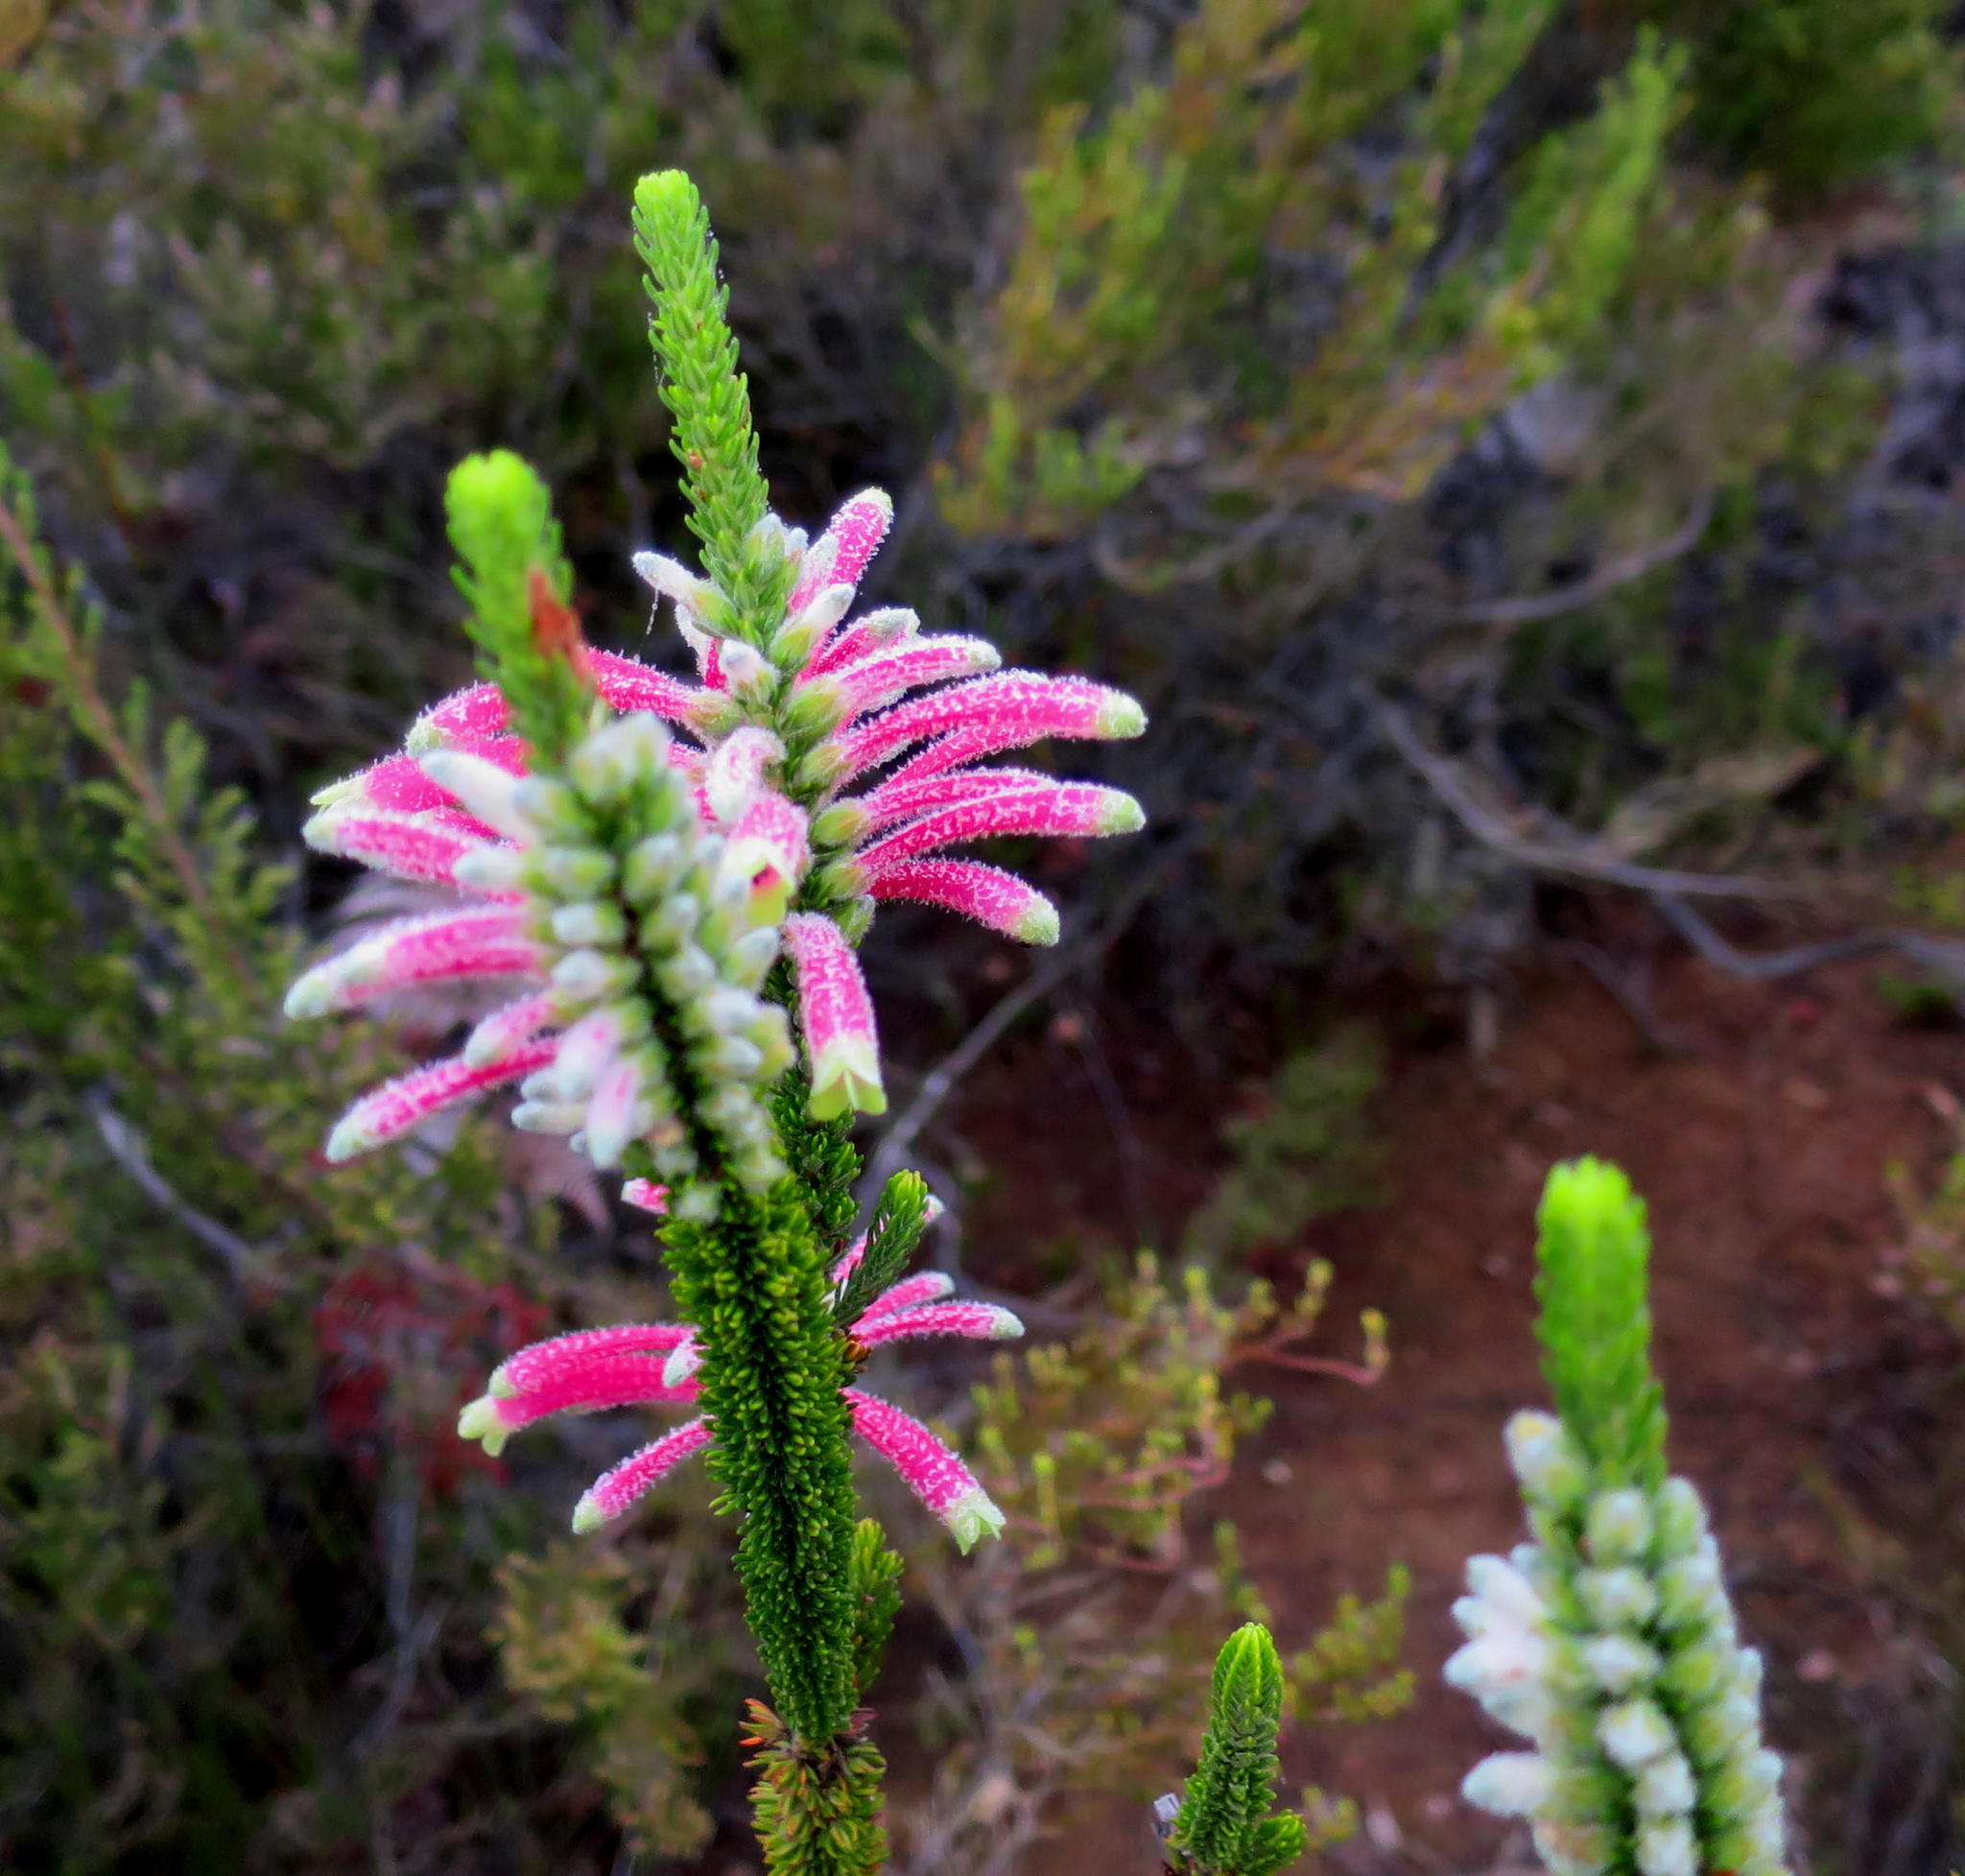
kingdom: Plantae
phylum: Tracheophyta
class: Magnoliopsida
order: Ericales
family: Ericaceae
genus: Erica
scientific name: Erica densifolia
